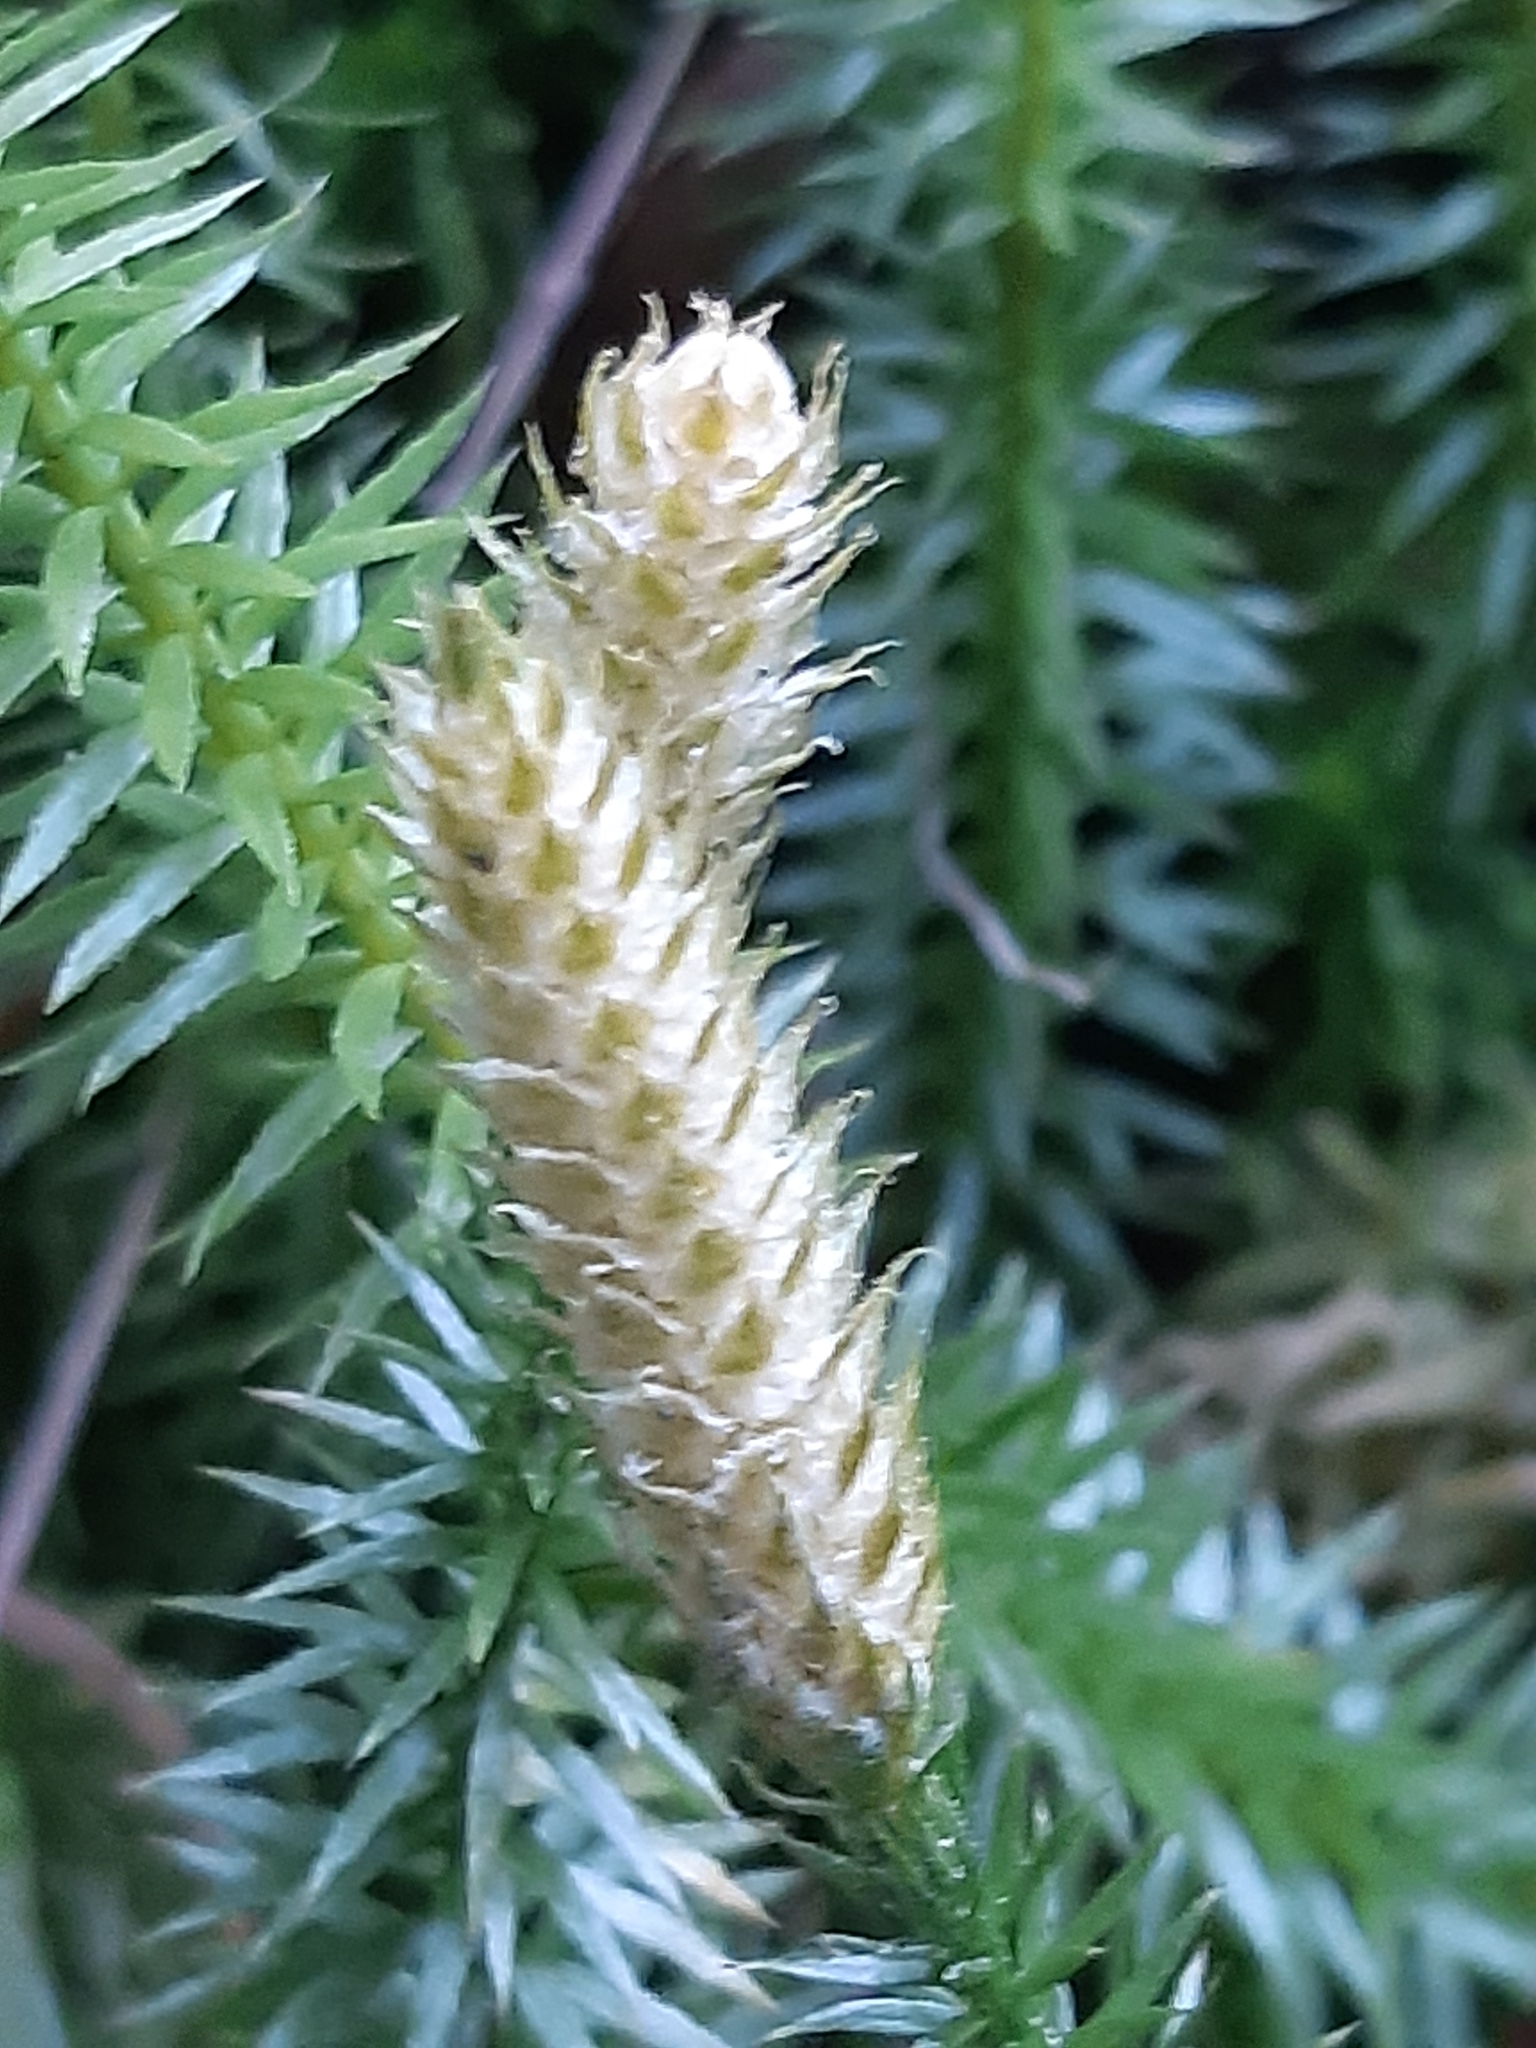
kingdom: Plantae
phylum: Tracheophyta
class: Lycopodiopsida
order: Lycopodiales
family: Lycopodiaceae
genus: Spinulum
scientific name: Spinulum annotinum
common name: Interrupted club-moss
